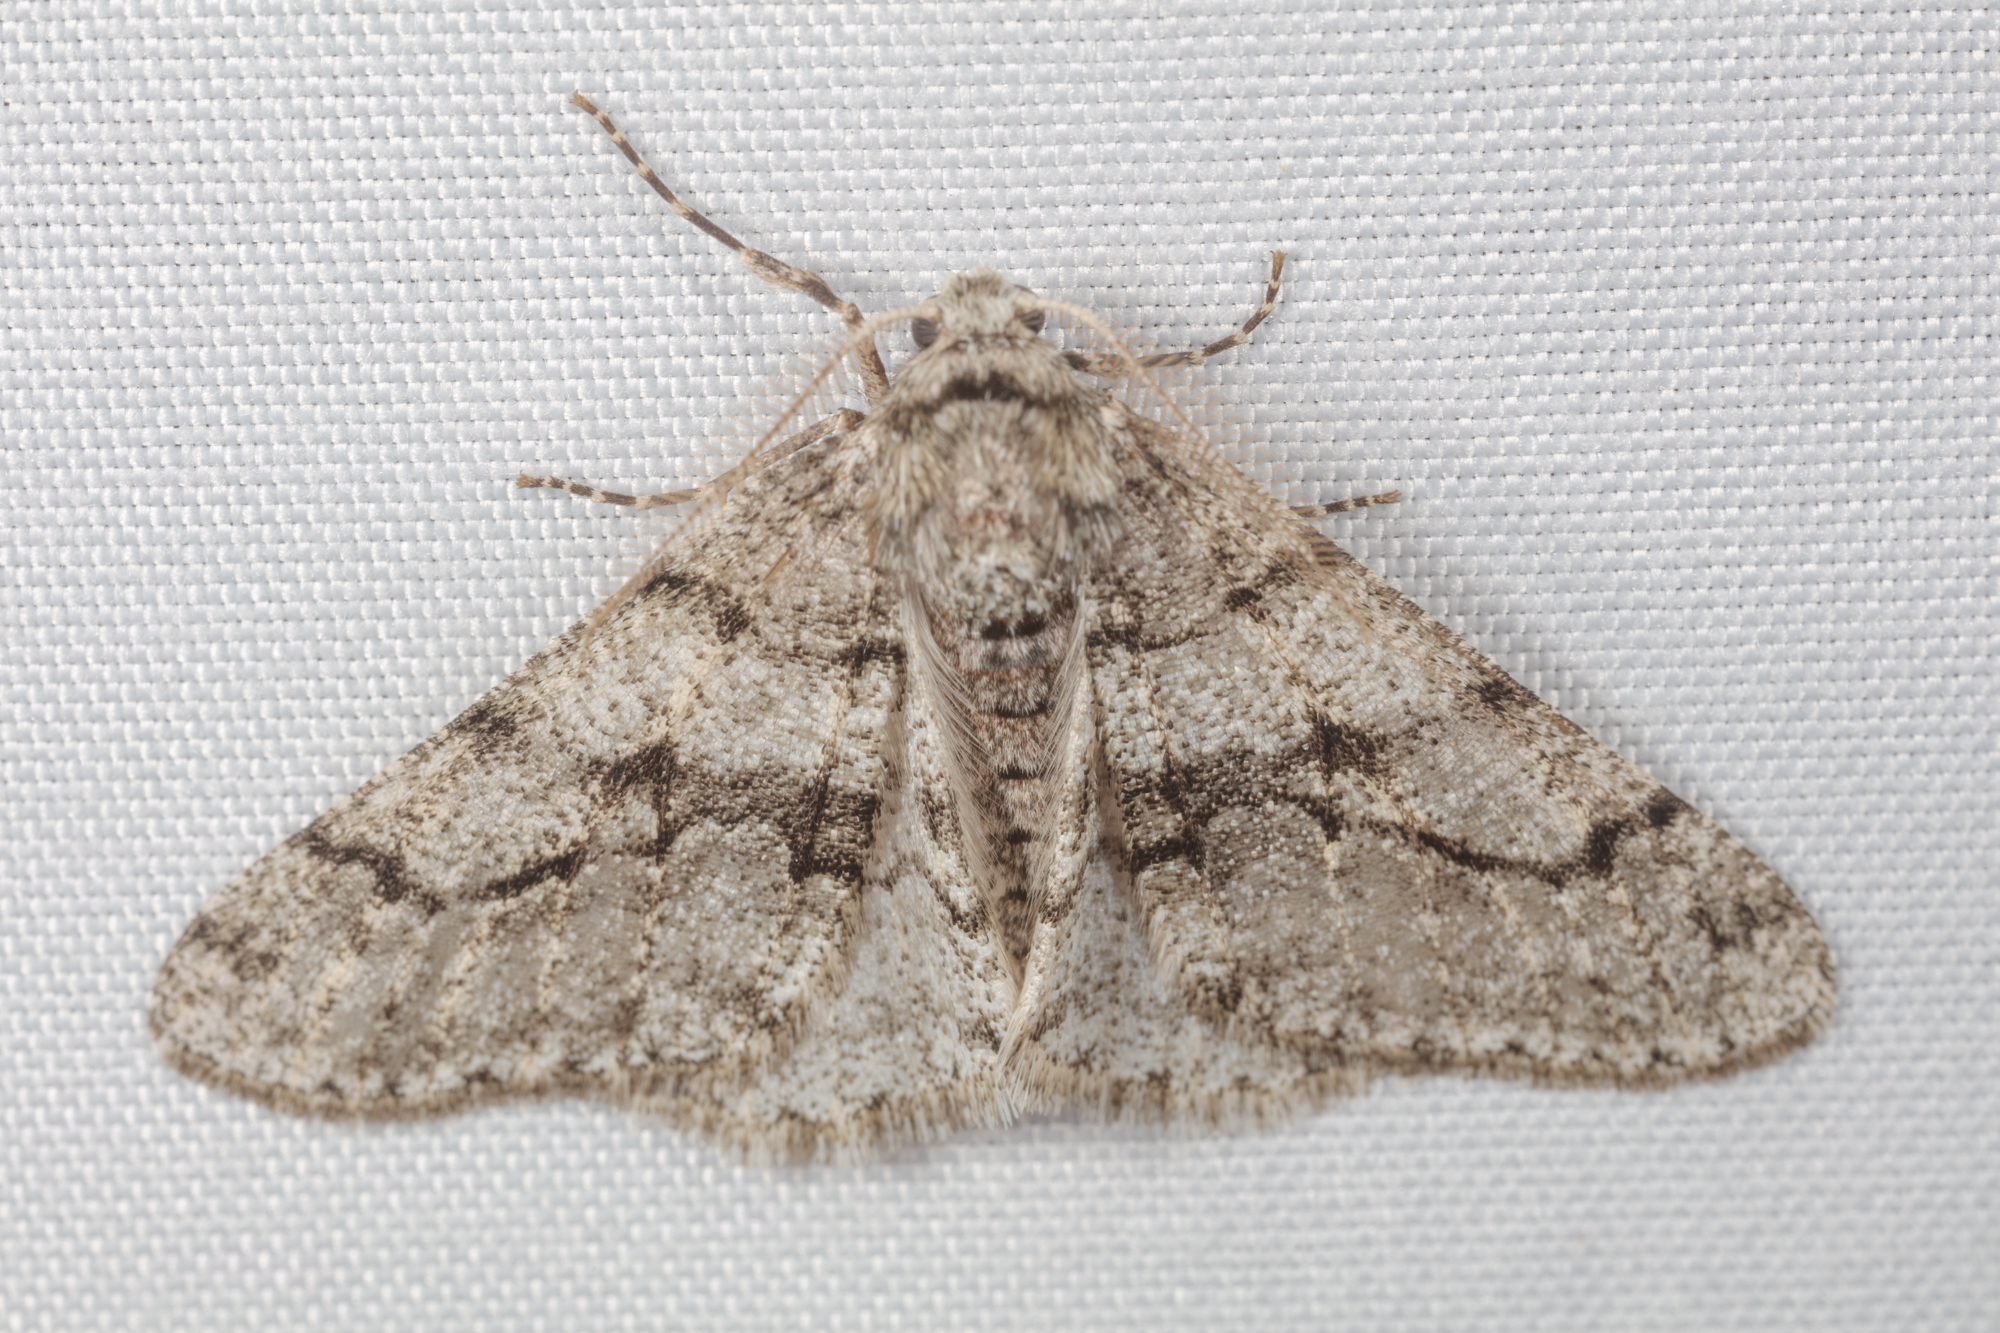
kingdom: Animalia
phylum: Arthropoda
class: Insecta
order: Lepidoptera
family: Geometridae
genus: Phigalia
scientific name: Phigalia titea
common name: Spiny looper
